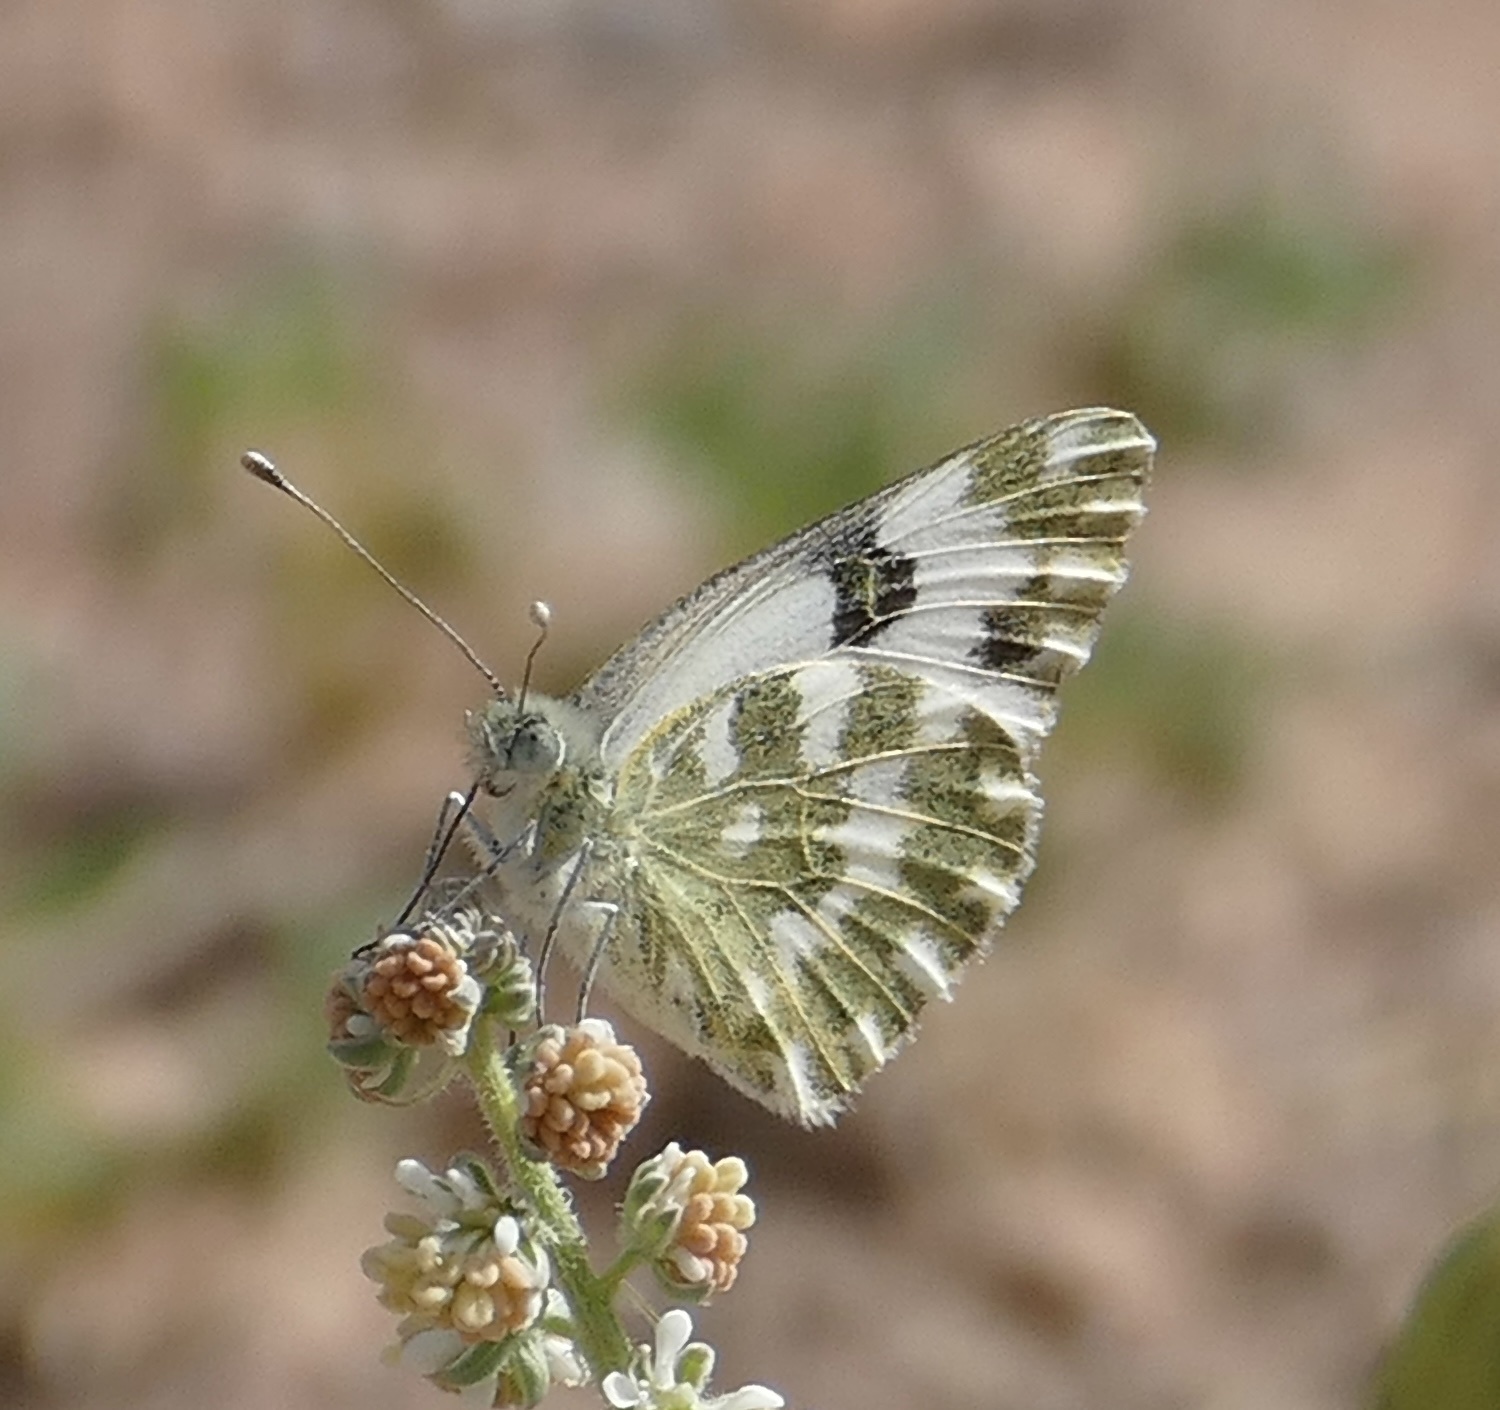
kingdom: Animalia
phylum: Arthropoda
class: Insecta
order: Lepidoptera
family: Pieridae
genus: Pontia
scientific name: Pontia daplidice
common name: Bath white
